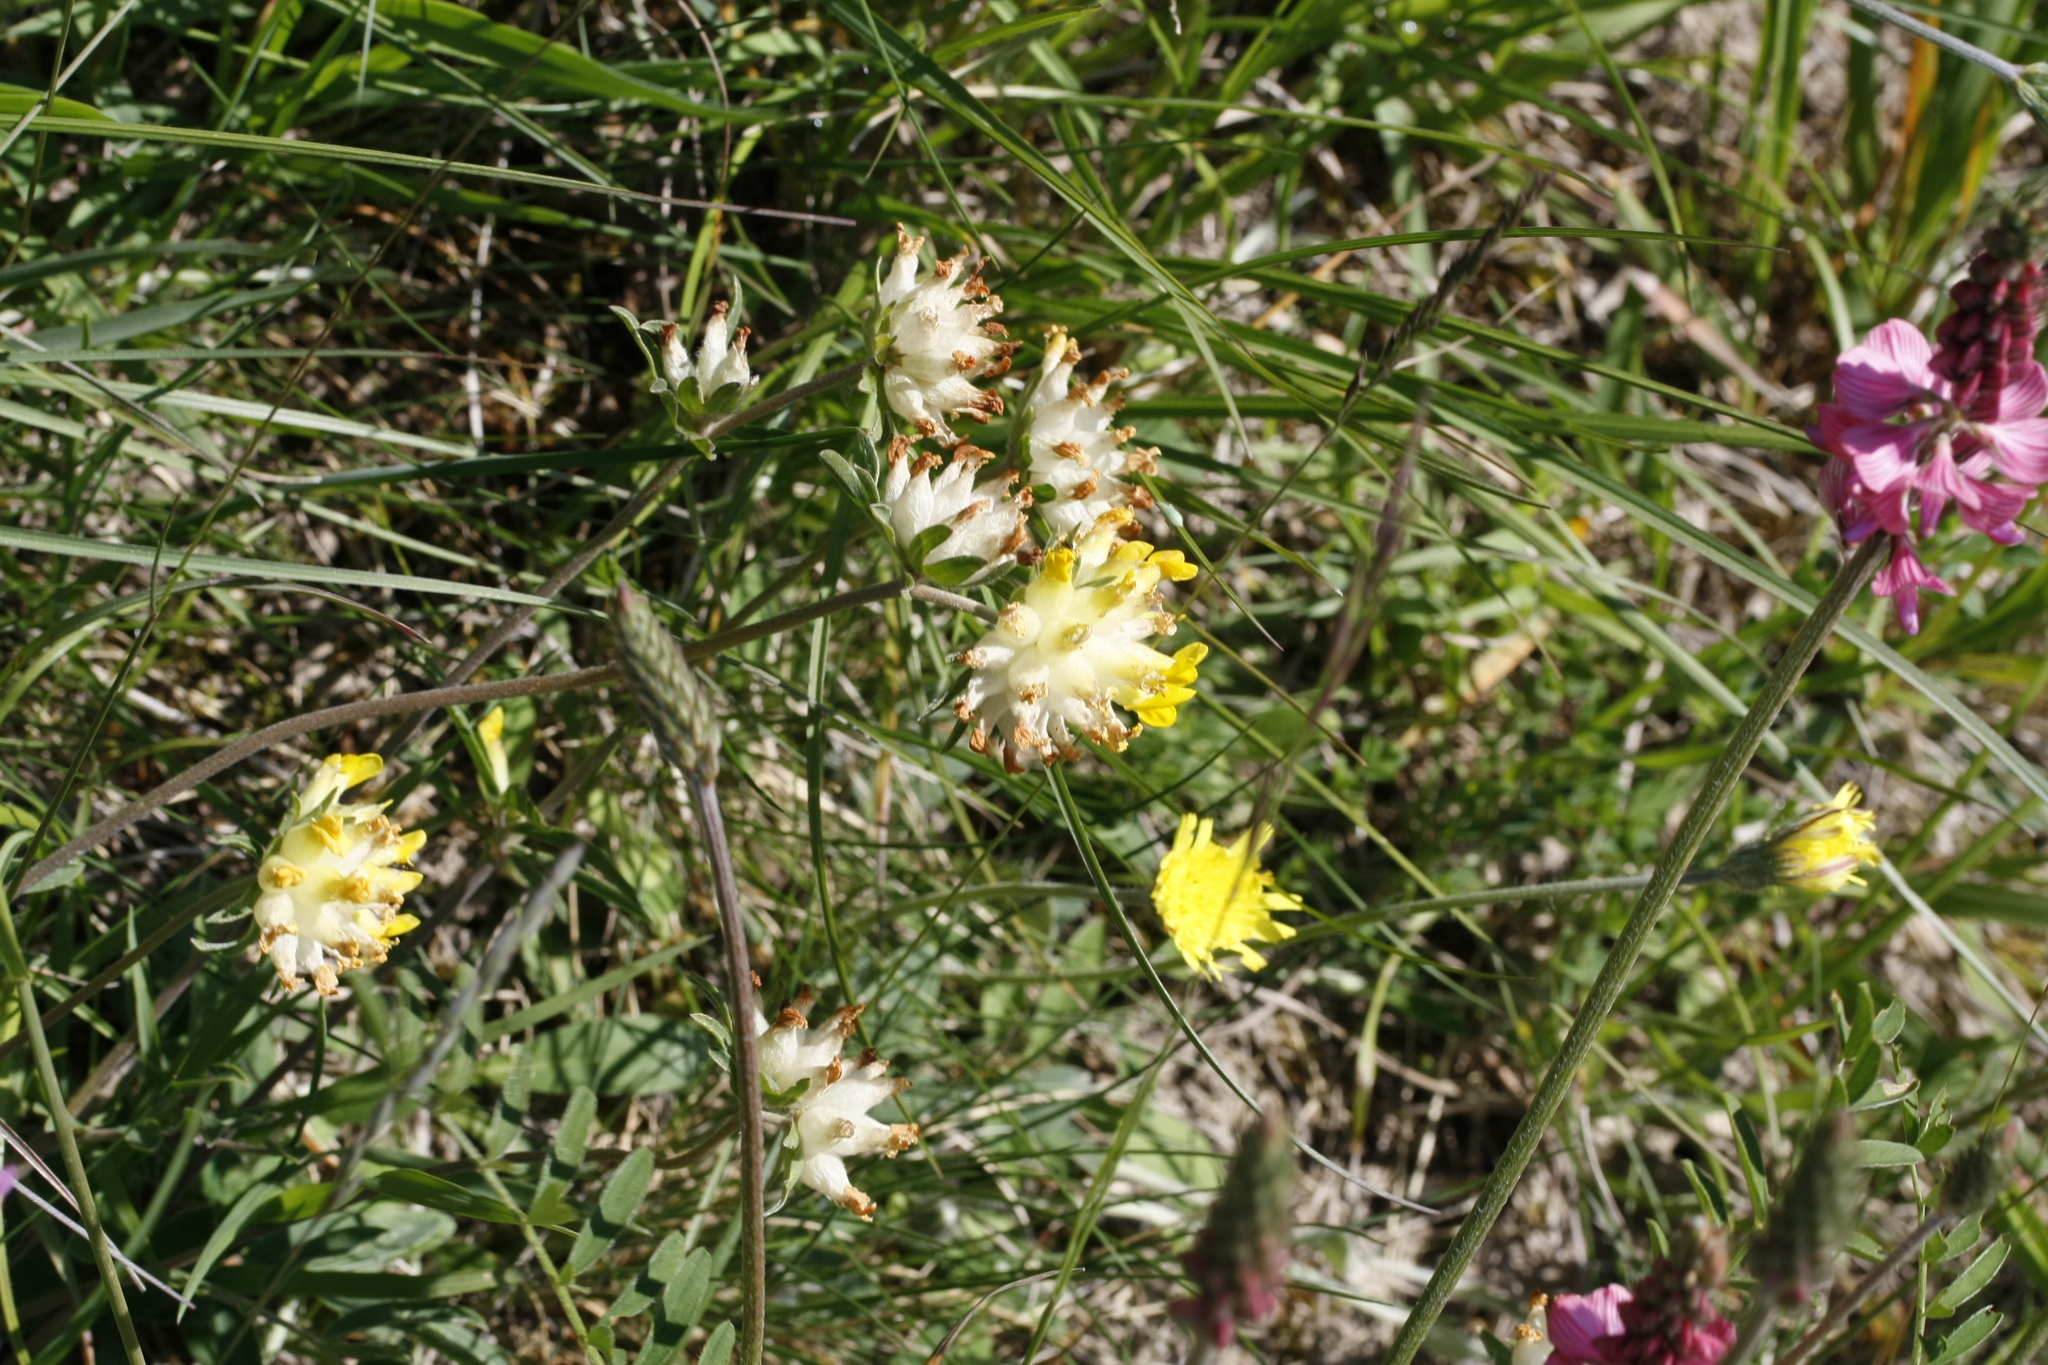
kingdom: Plantae
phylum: Tracheophyta
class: Magnoliopsida
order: Fabales
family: Fabaceae
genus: Anthyllis
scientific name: Anthyllis vulneraria
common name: Kidney vetch
